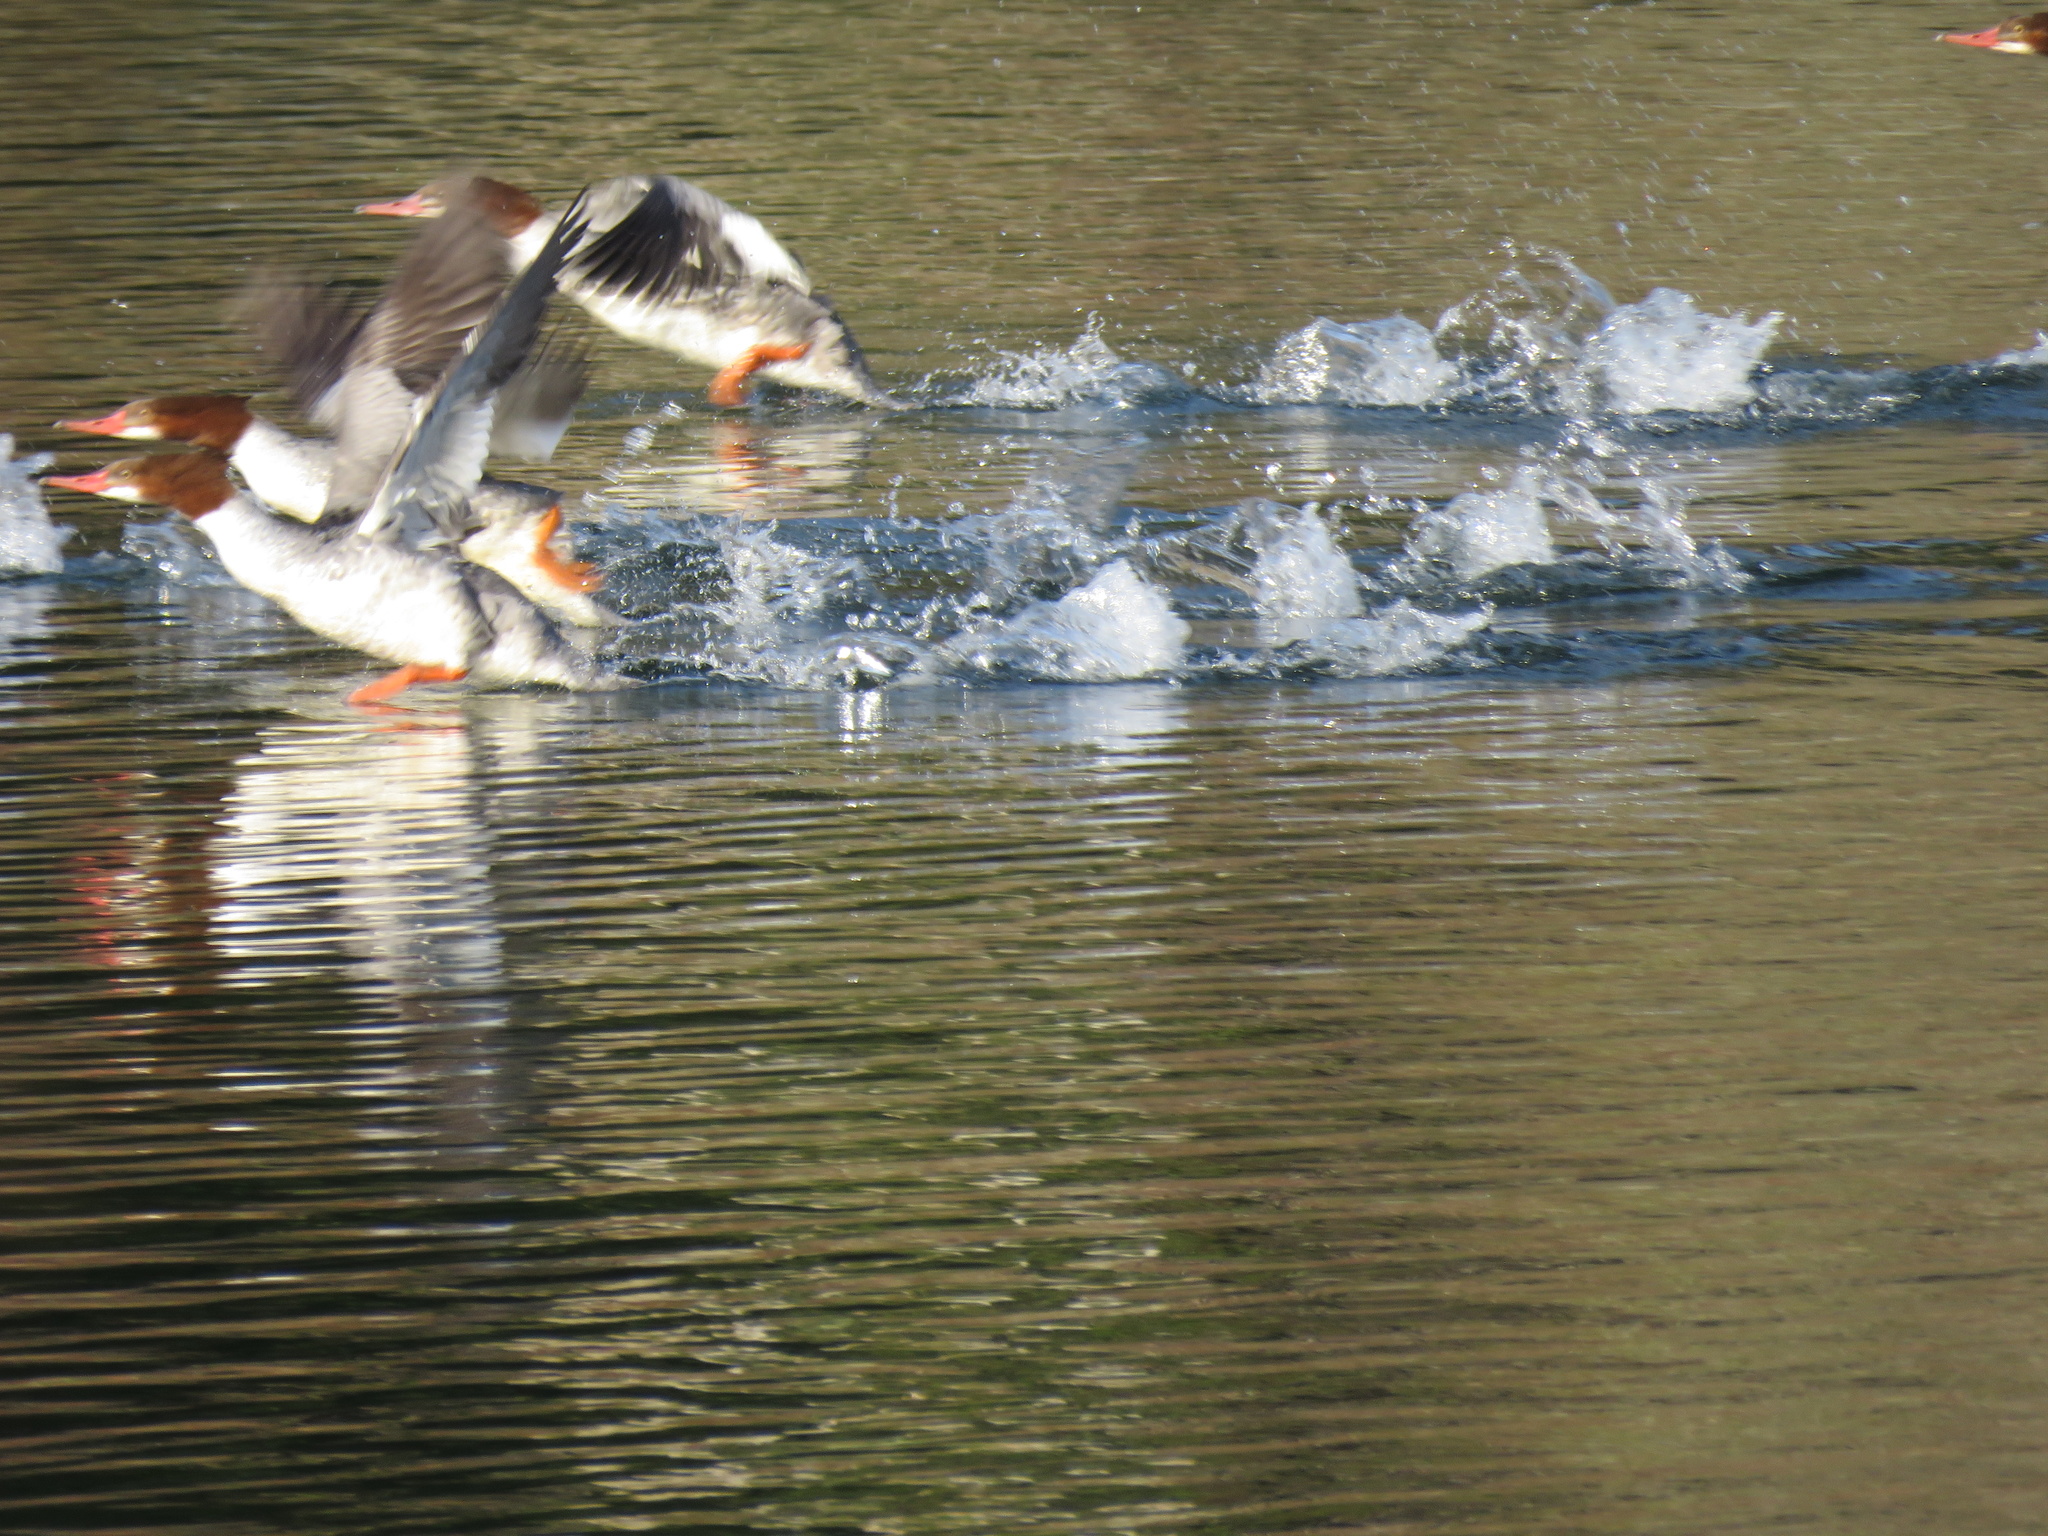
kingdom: Animalia
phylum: Chordata
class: Aves
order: Anseriformes
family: Anatidae
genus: Mergus
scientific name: Mergus merganser
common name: Common merganser
